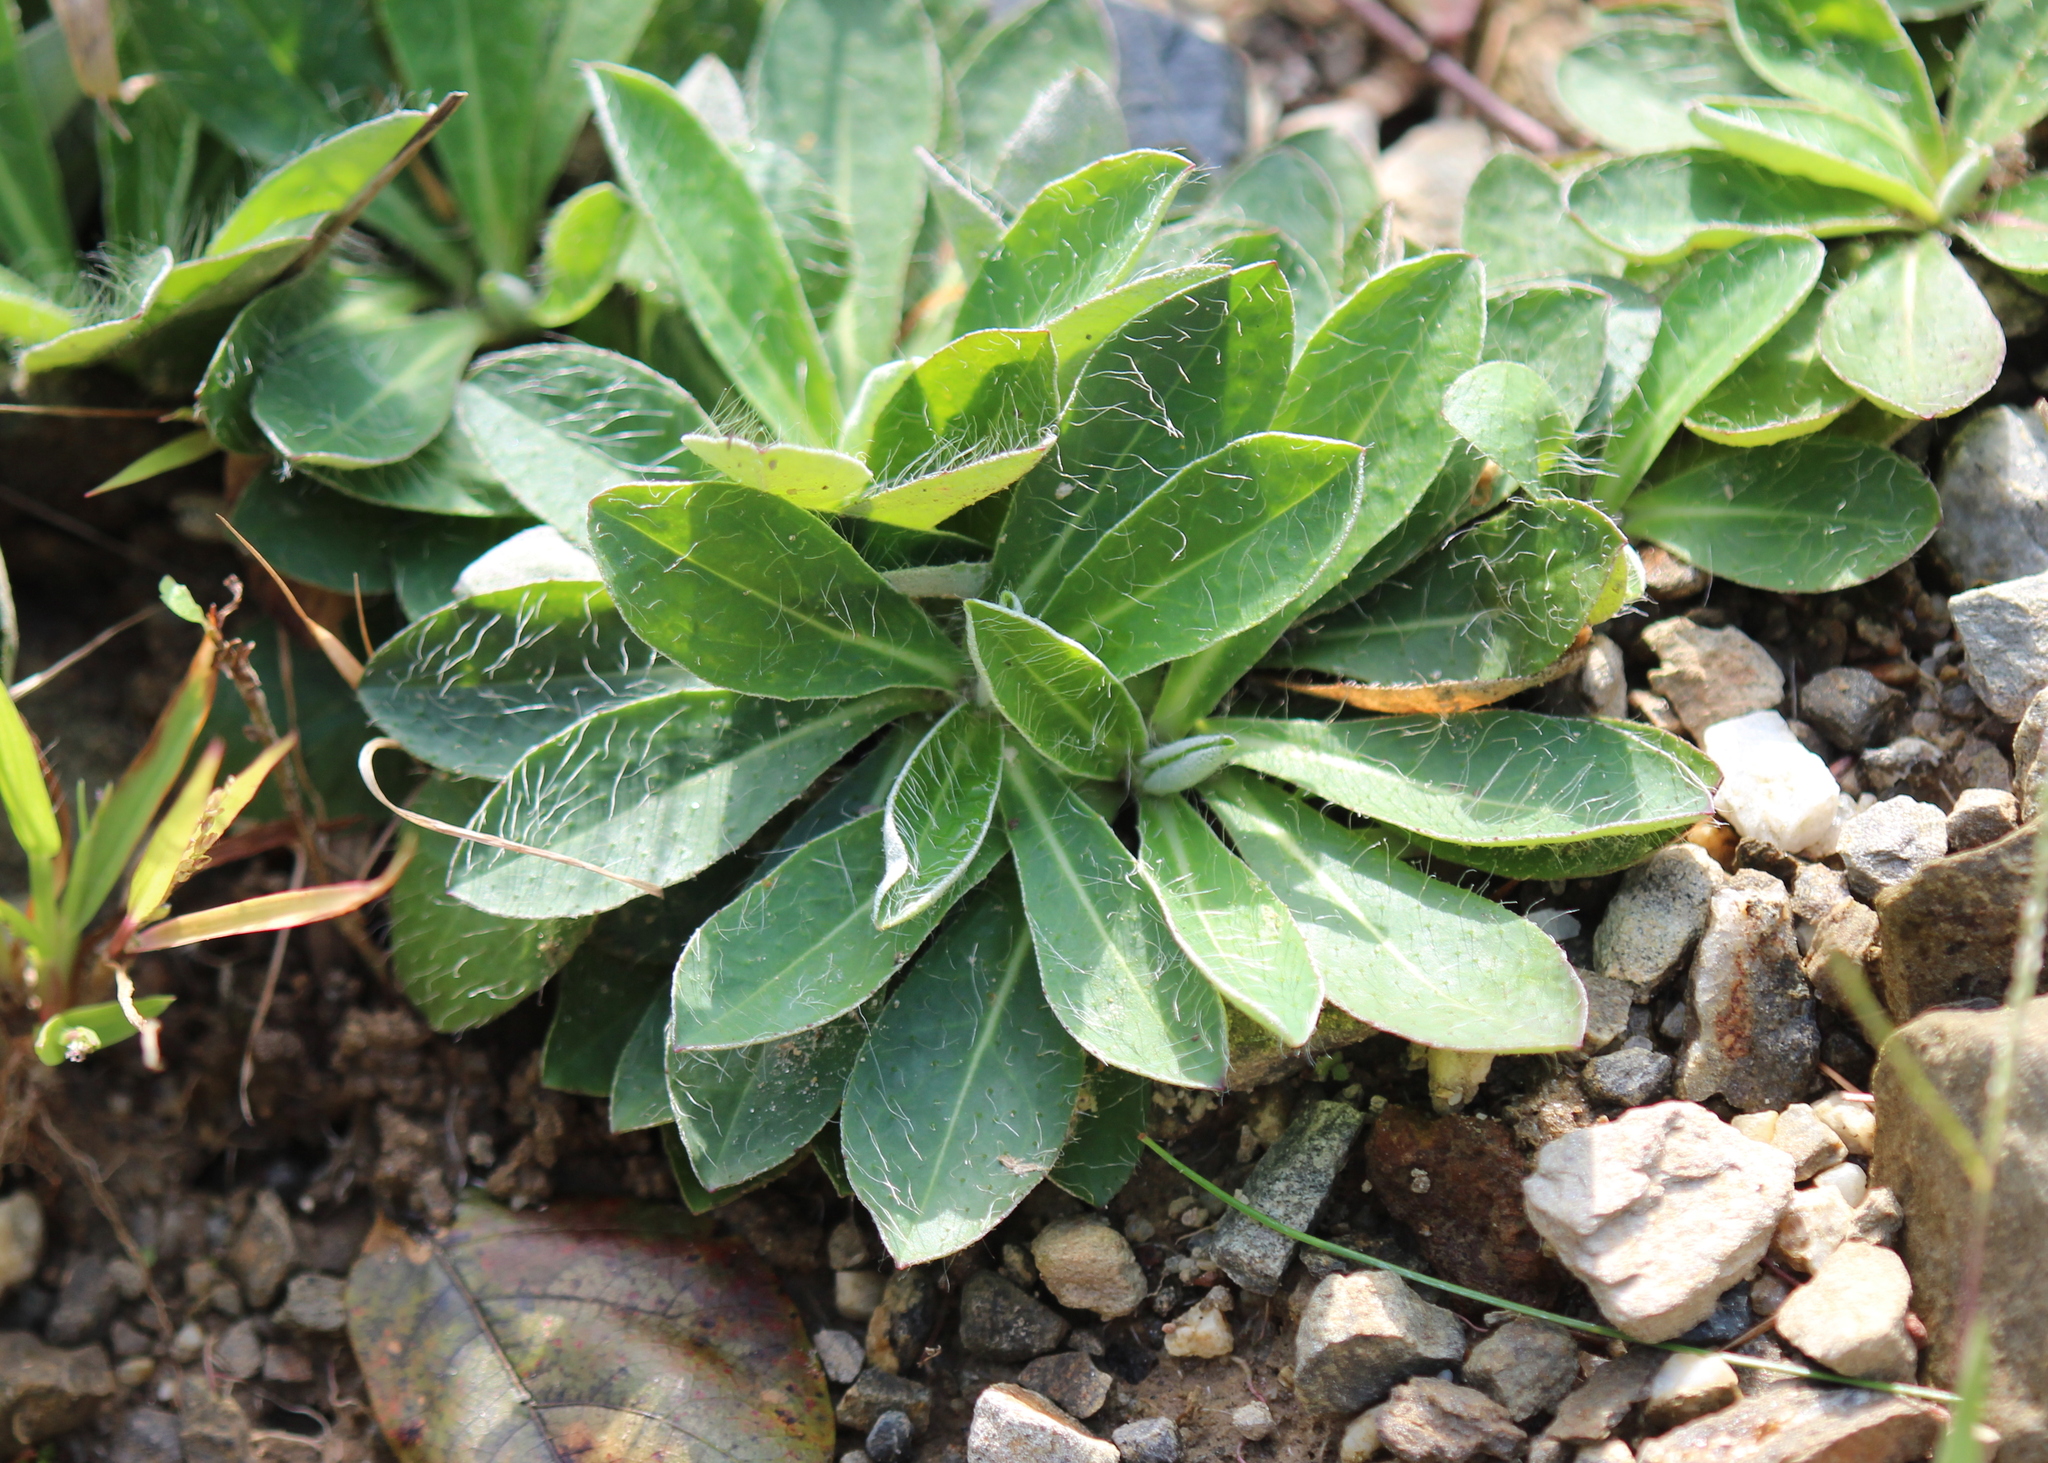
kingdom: Plantae
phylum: Tracheophyta
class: Magnoliopsida
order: Asterales
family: Asteraceae
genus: Pilosella
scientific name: Pilosella officinarum
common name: Mouse-ear hawkweed
